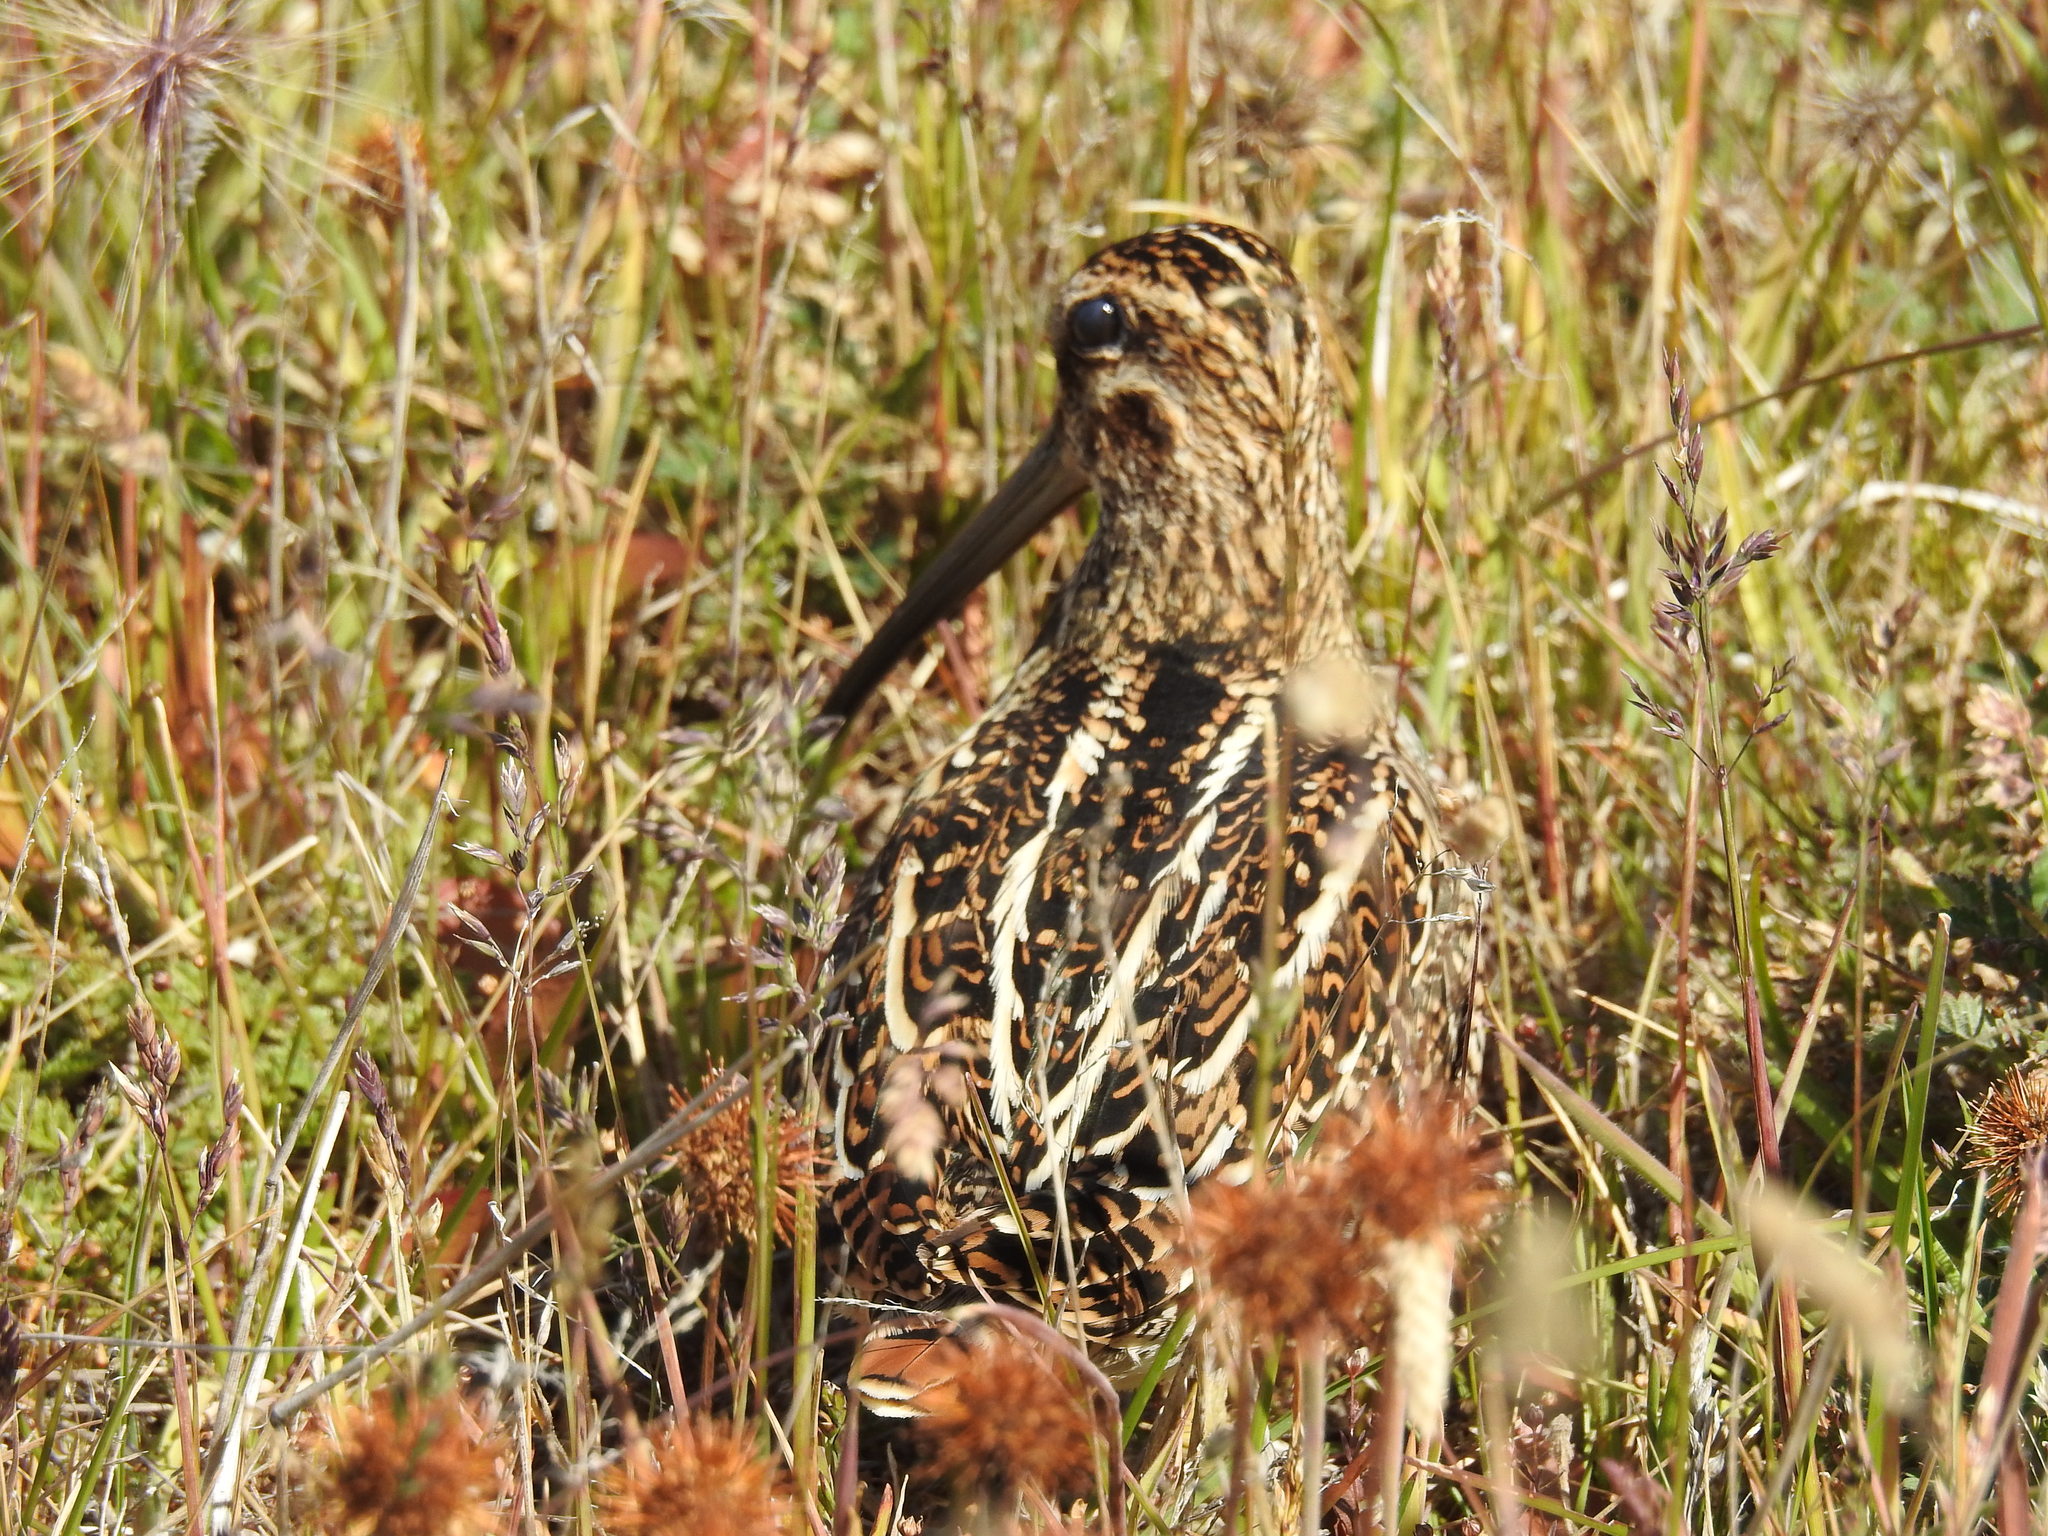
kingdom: Animalia
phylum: Chordata
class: Aves
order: Charadriiformes
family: Scolopacidae
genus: Gallinago
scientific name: Gallinago magellanica
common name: Magellanic snipe
